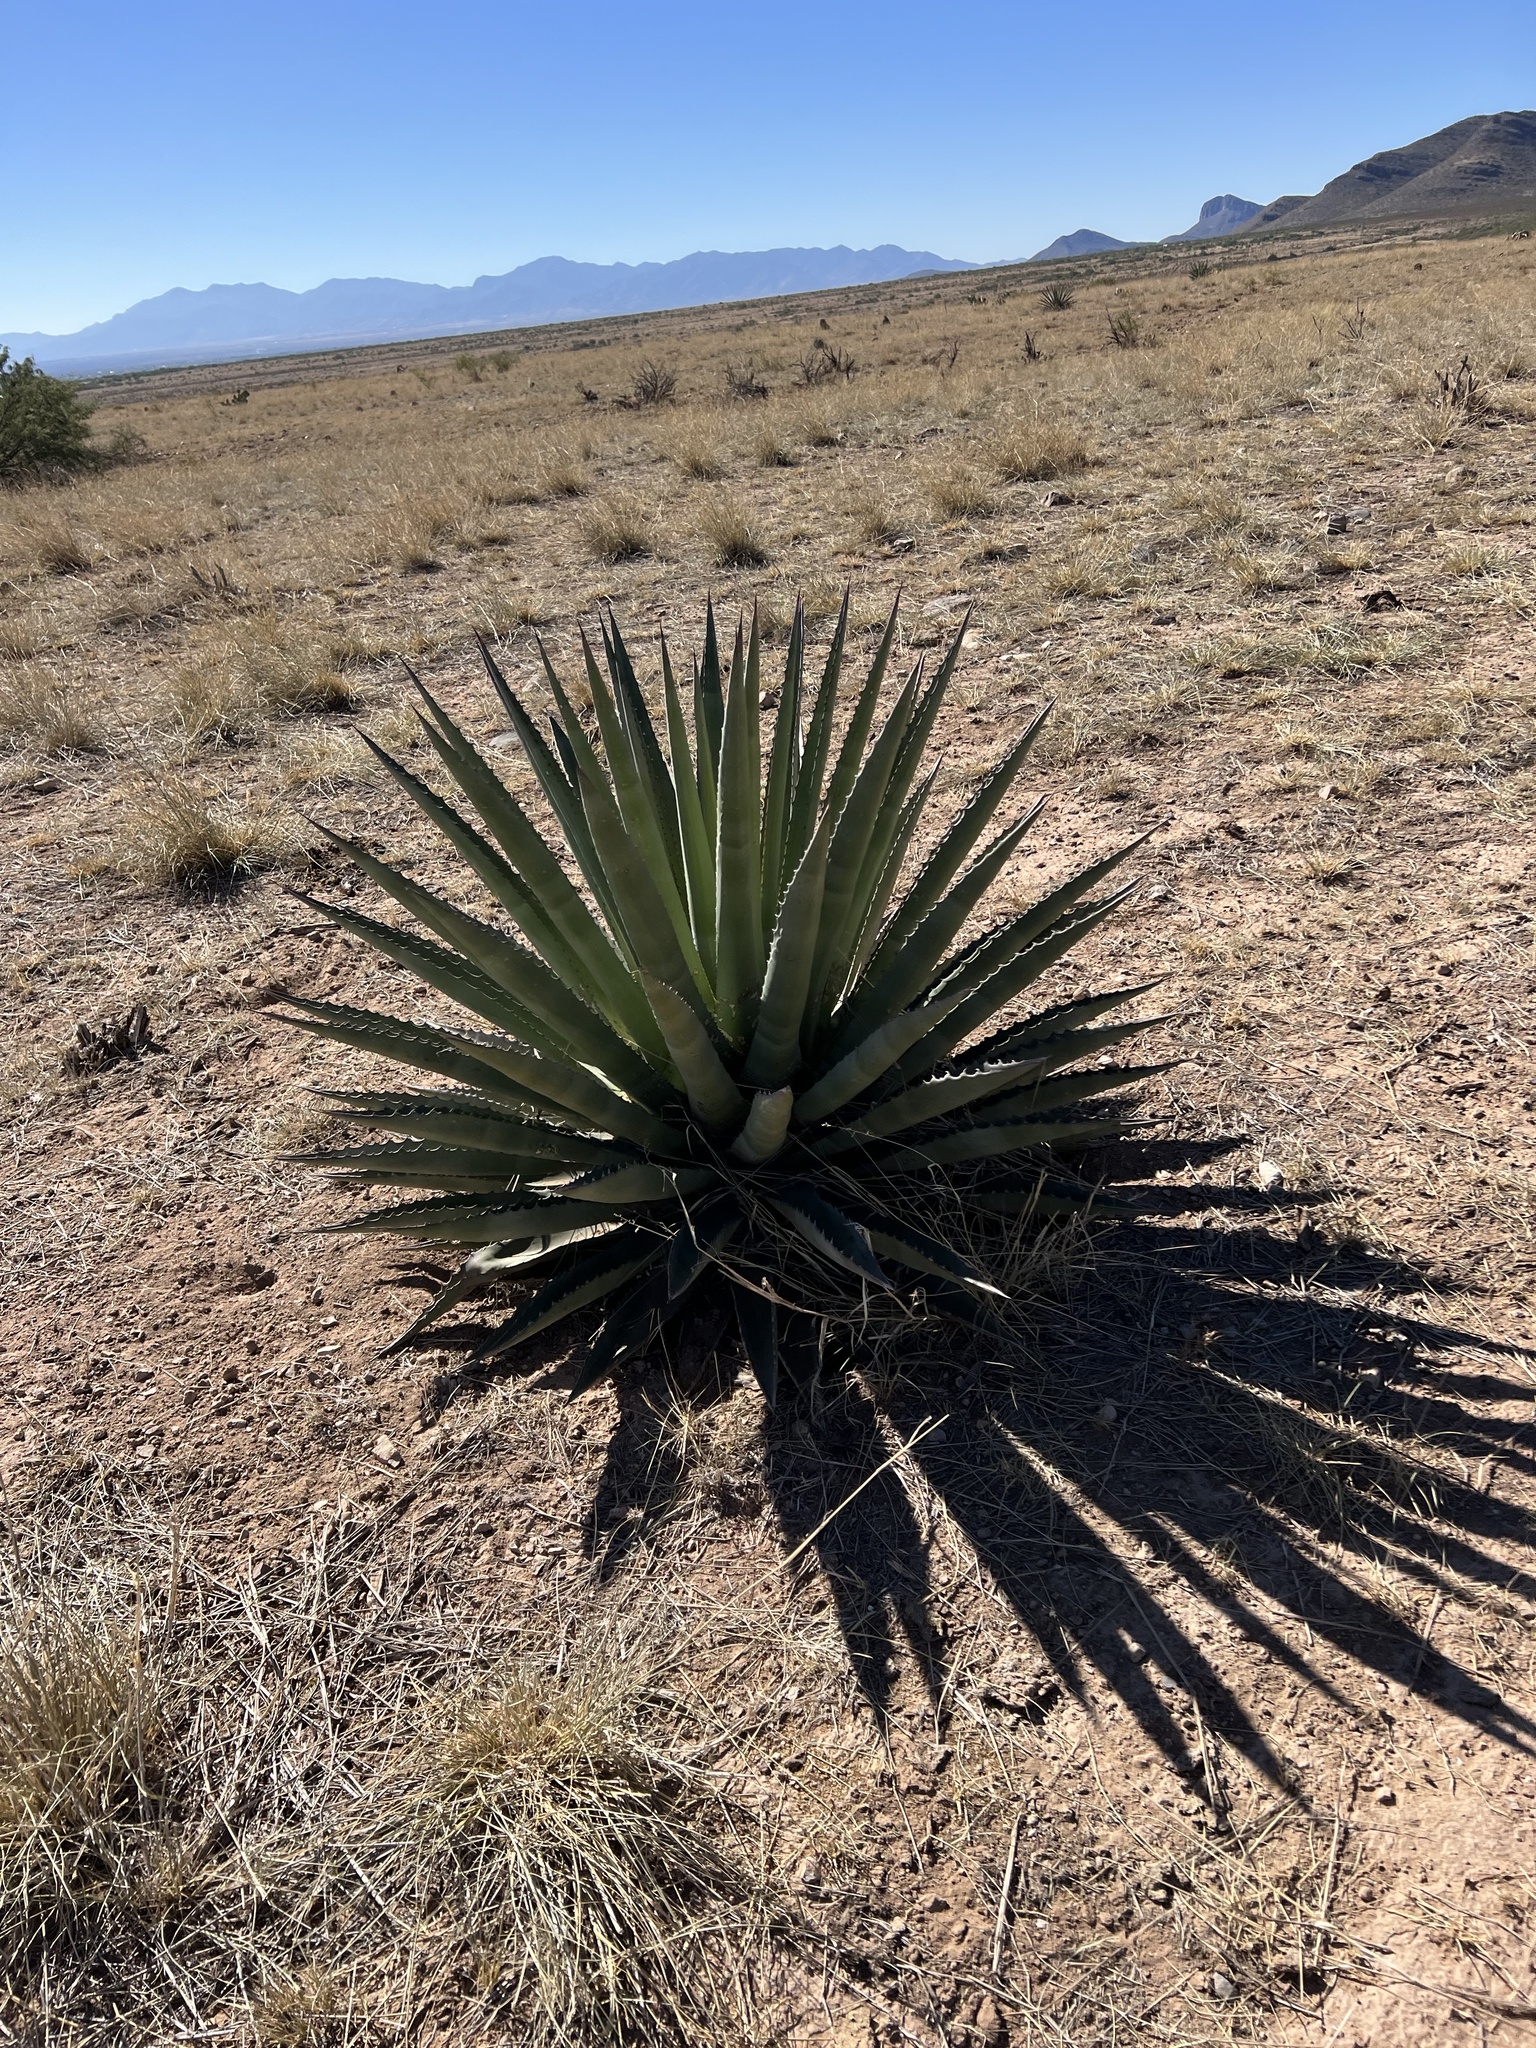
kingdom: Plantae
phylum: Tracheophyta
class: Liliopsida
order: Asparagales
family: Asparagaceae
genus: Agave
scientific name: Agave palmeri
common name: Palmer agave
